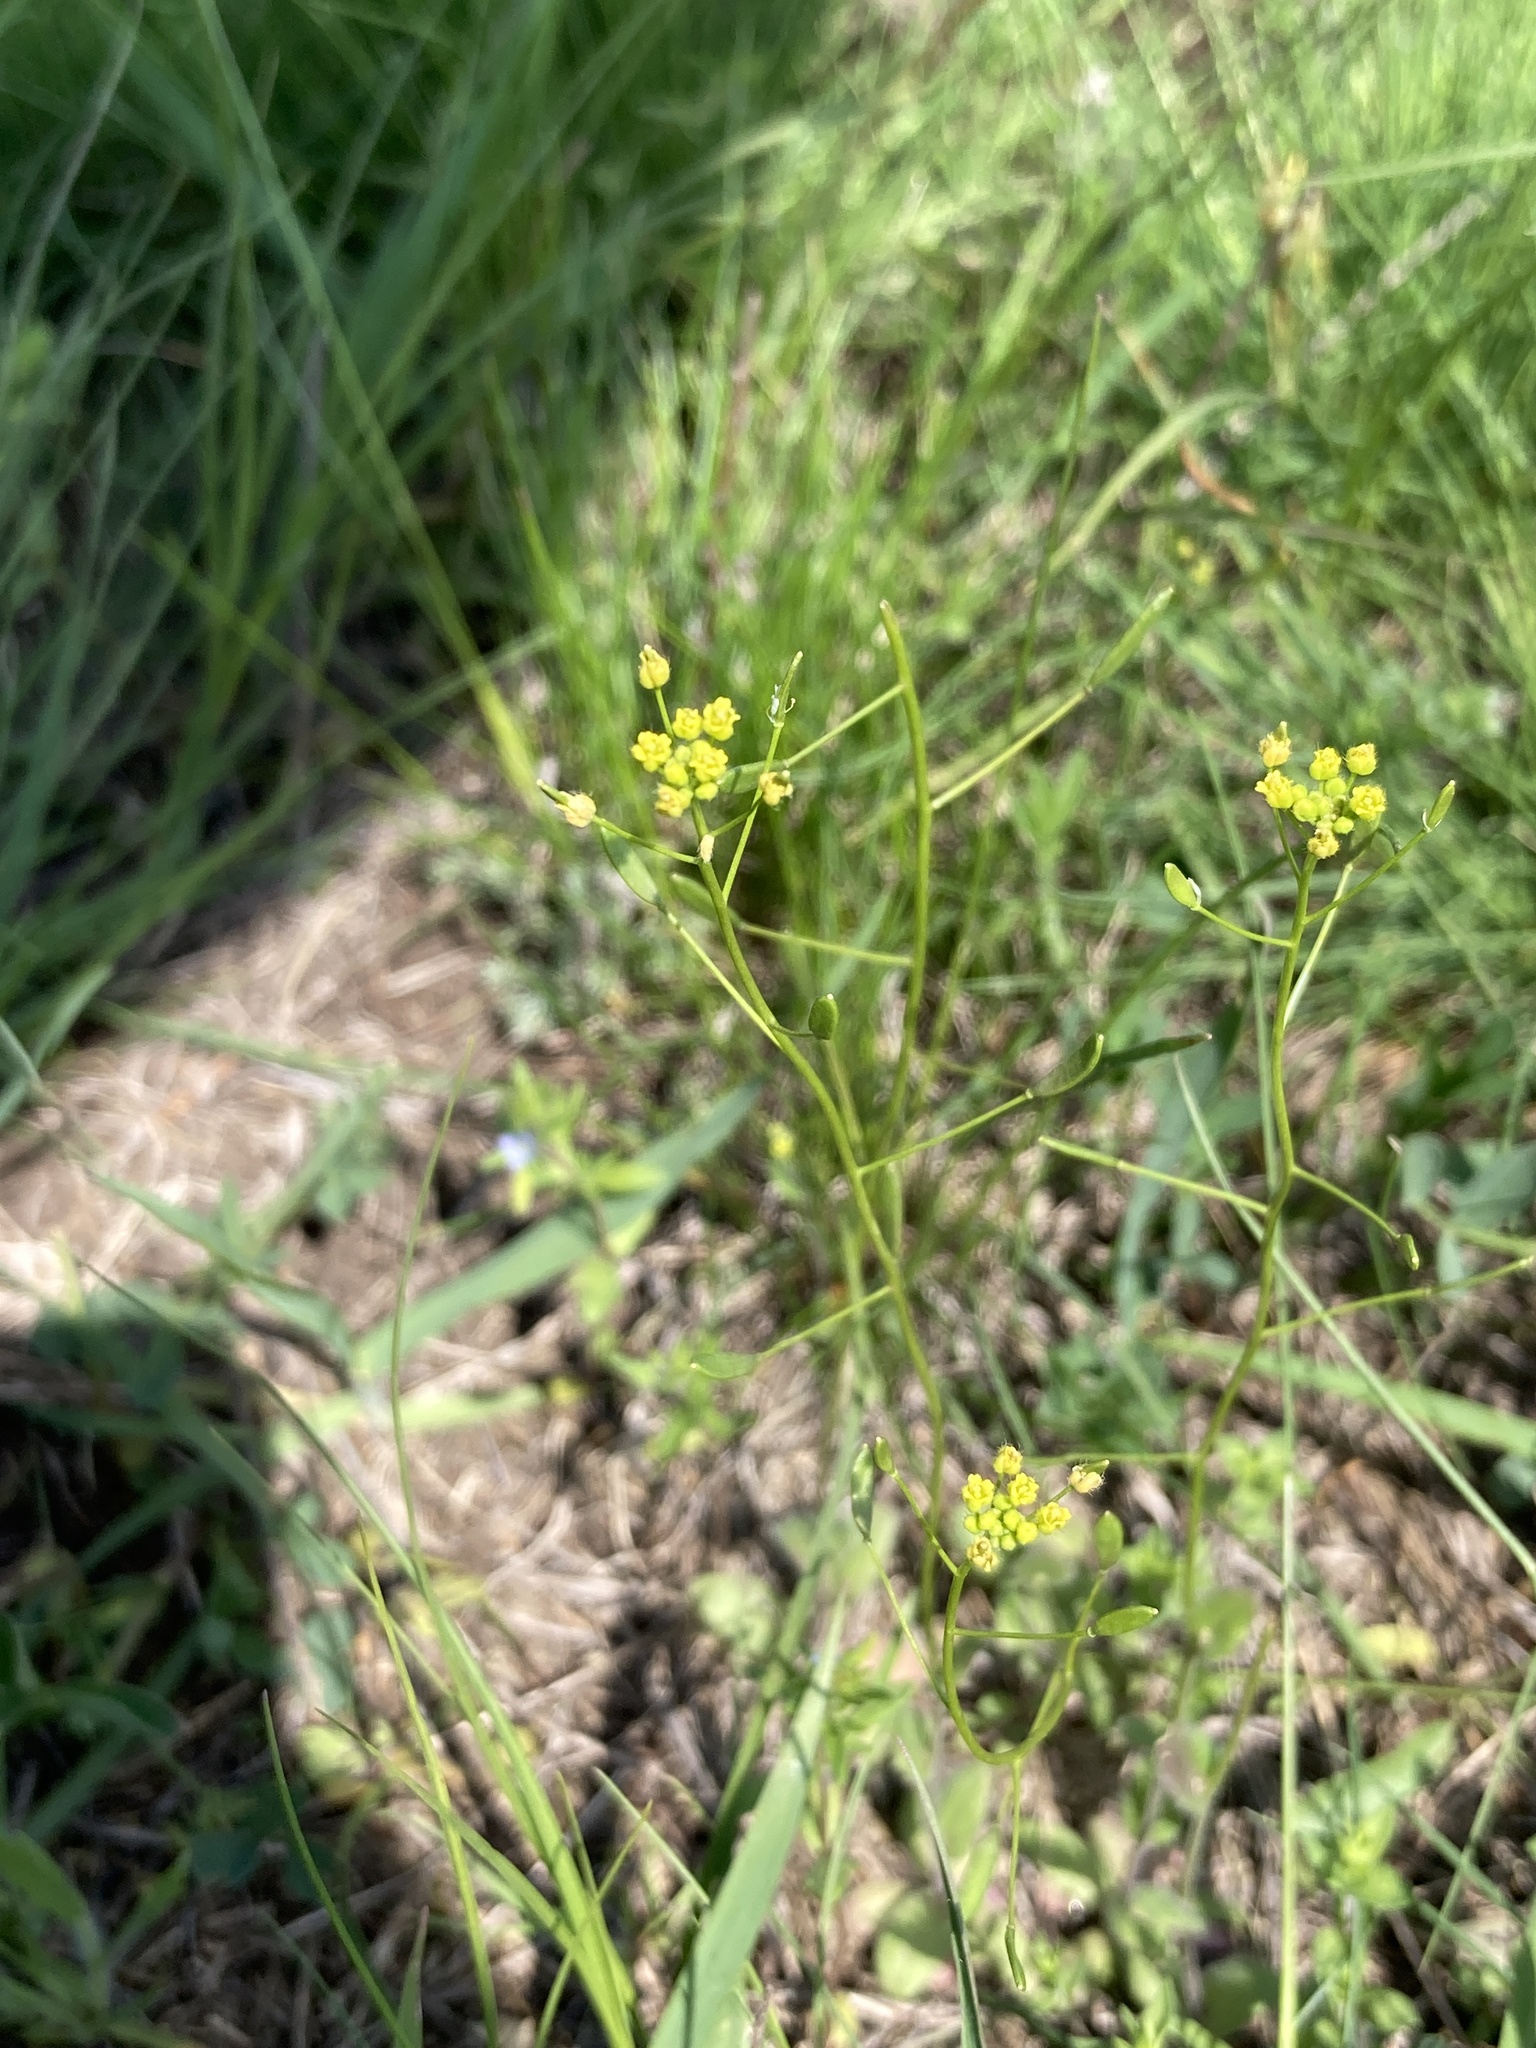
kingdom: Plantae
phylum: Tracheophyta
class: Magnoliopsida
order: Brassicales
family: Brassicaceae
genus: Draba
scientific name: Draba nemorosa
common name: Wood whitlow-grass
